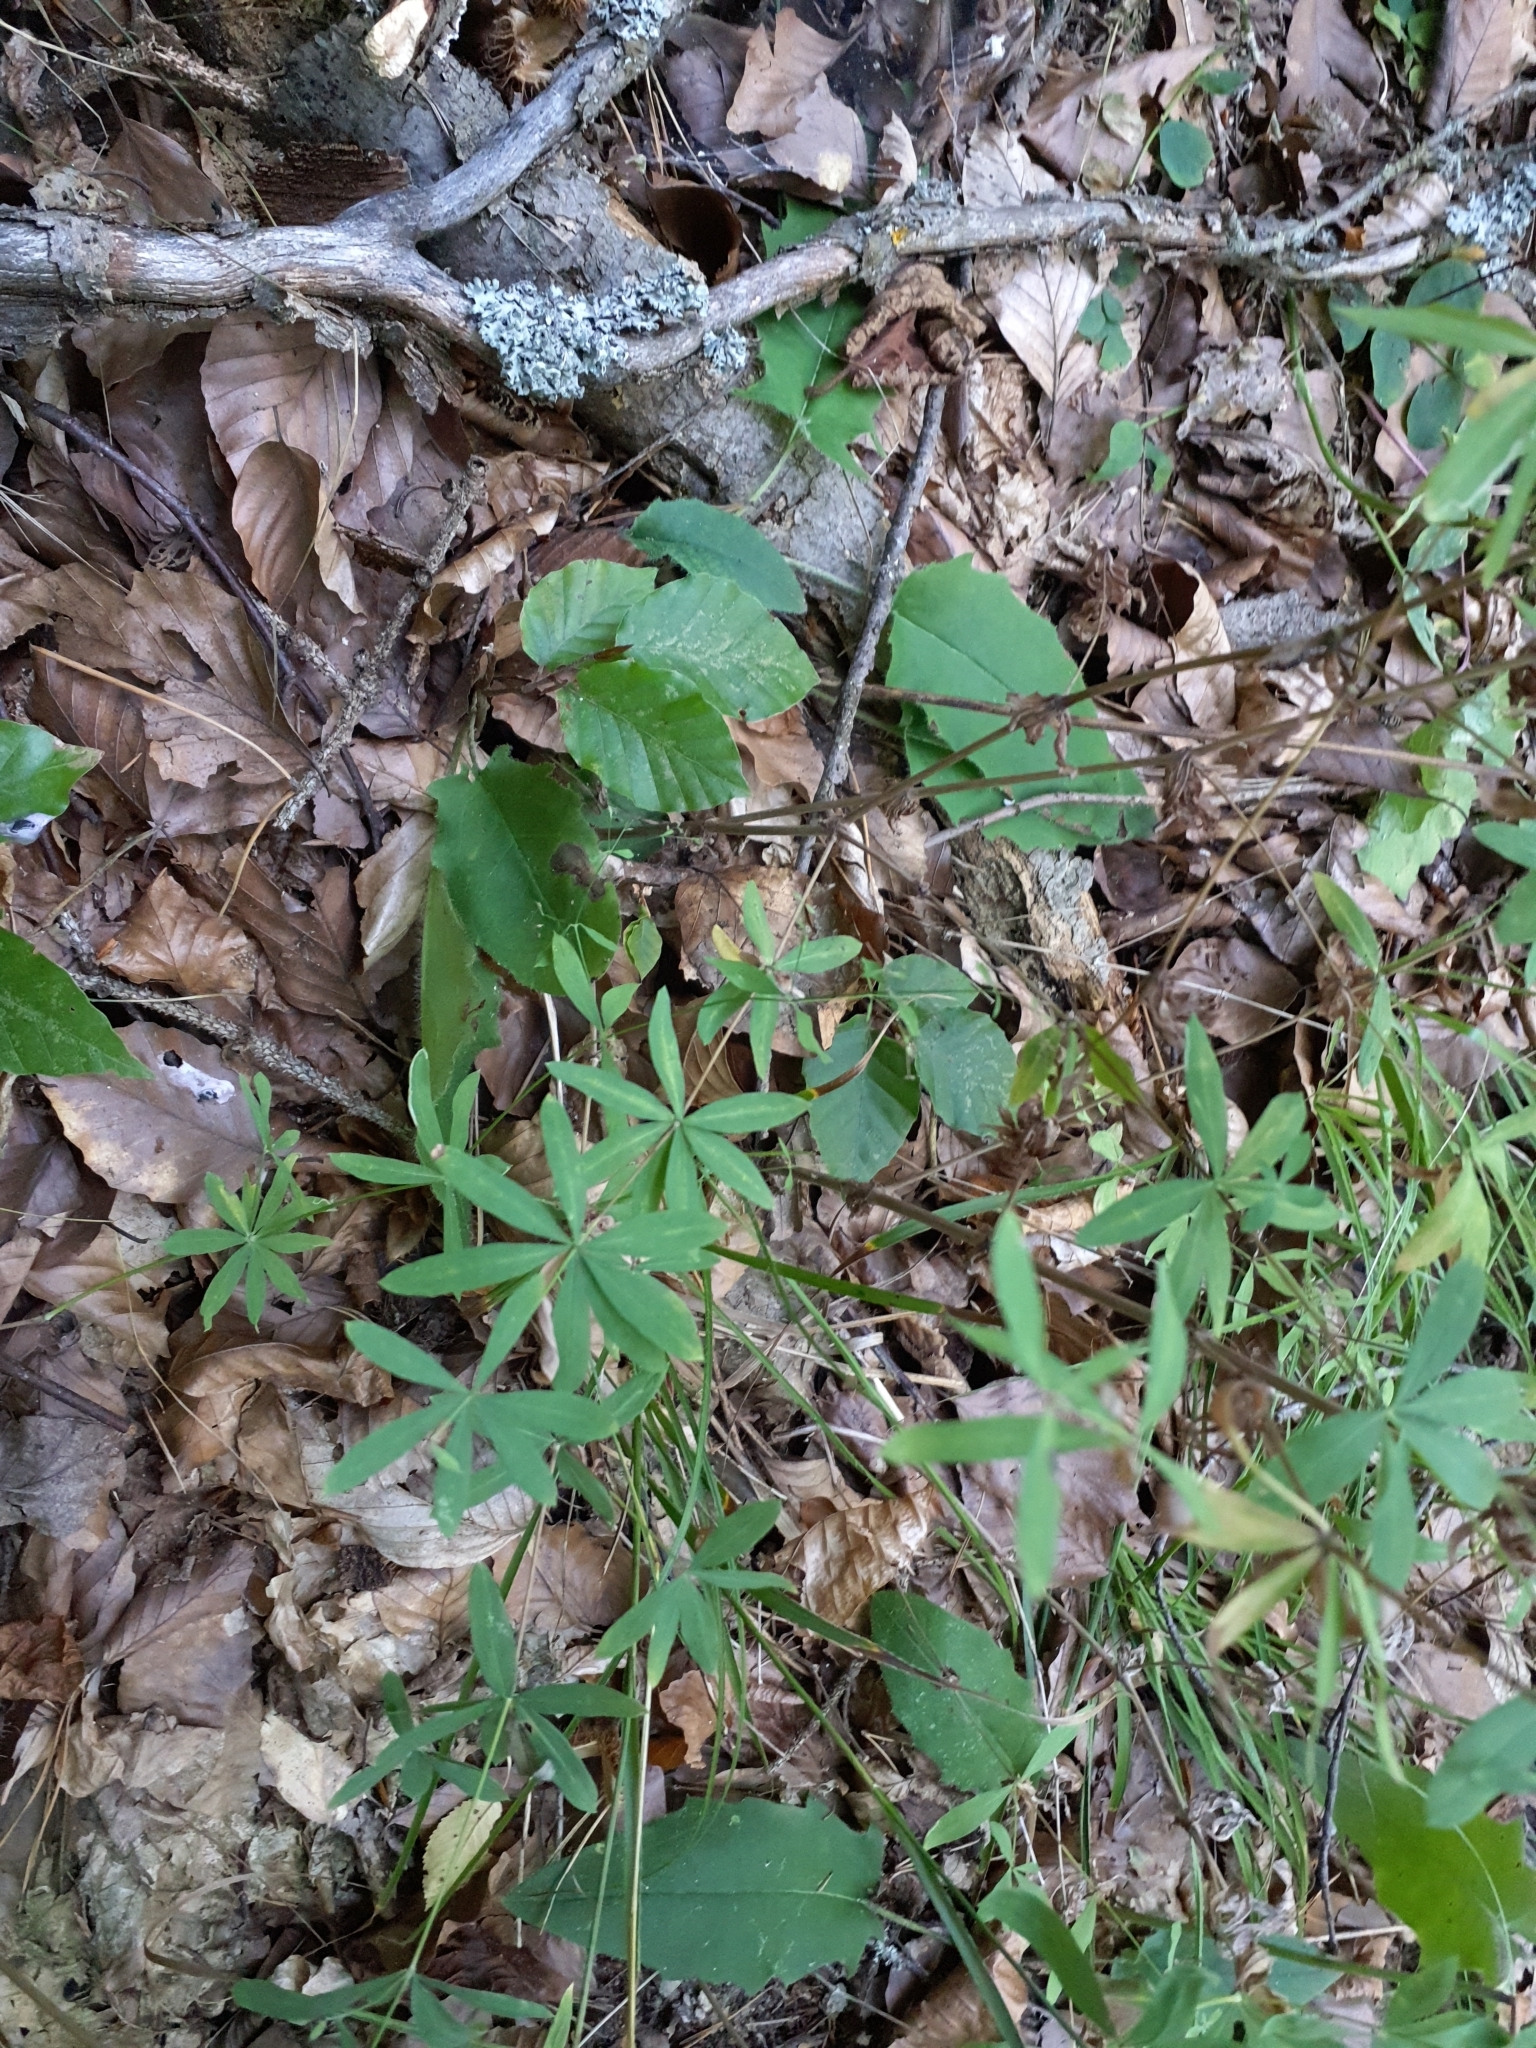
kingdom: Plantae
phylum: Tracheophyta
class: Magnoliopsida
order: Gentianales
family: Rubiaceae
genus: Galium
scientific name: Galium sylvaticum
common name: Wood bedstraw
